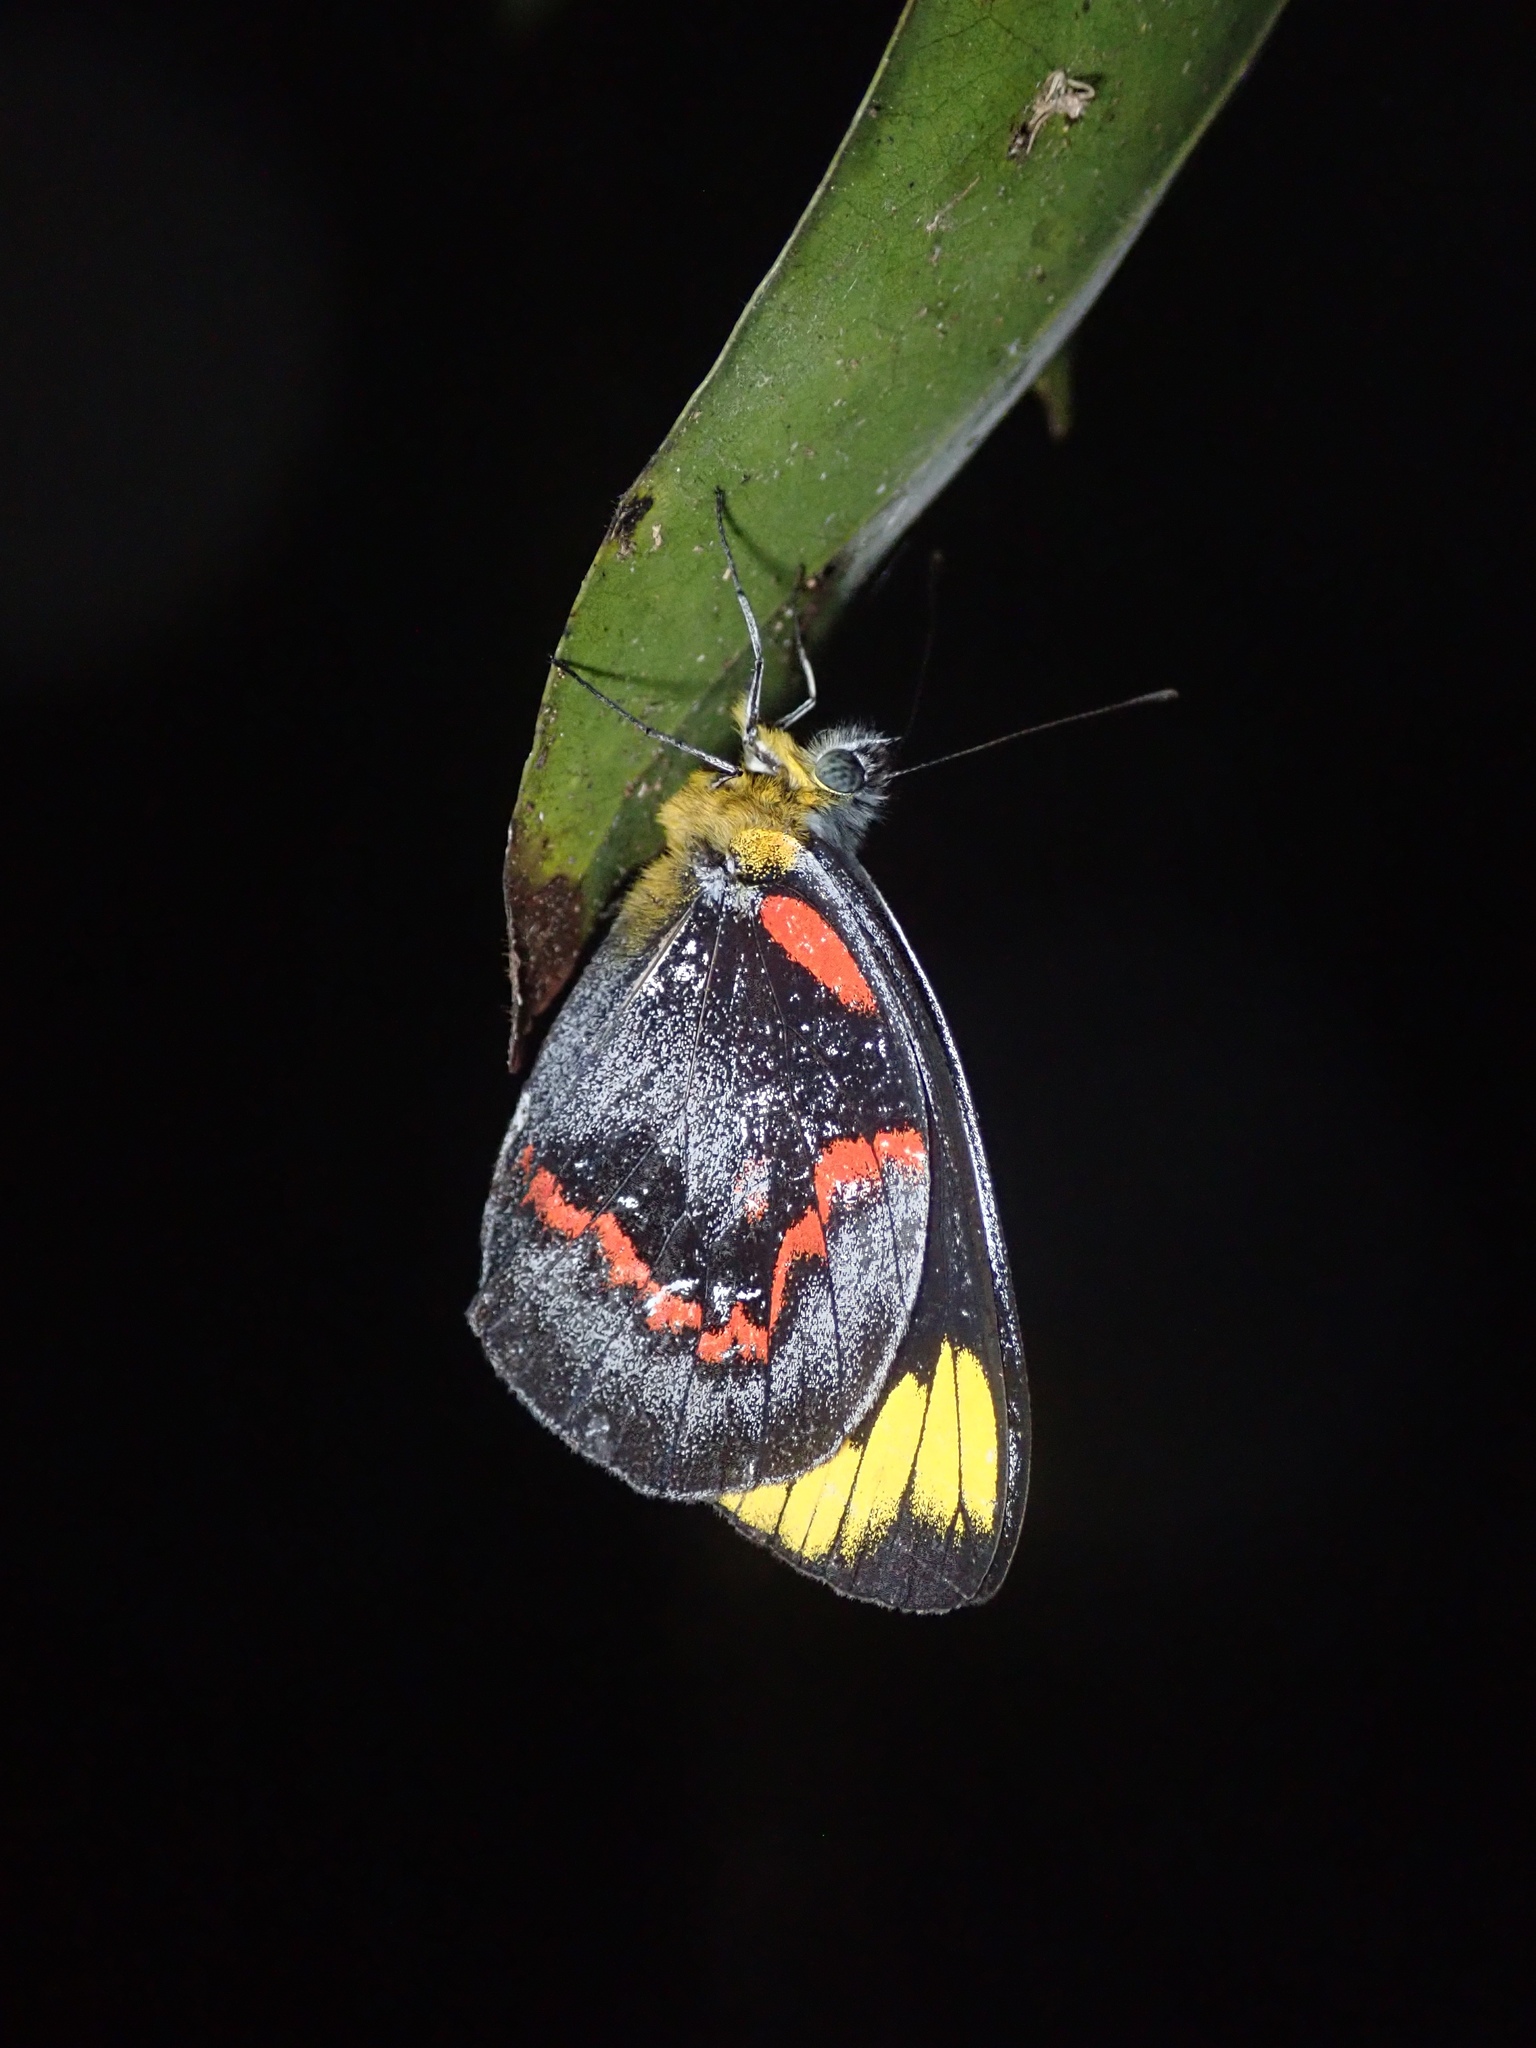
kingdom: Animalia
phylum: Arthropoda
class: Insecta
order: Lepidoptera
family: Pieridae
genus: Delias
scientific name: Delias nigrina
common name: Black jezebel
